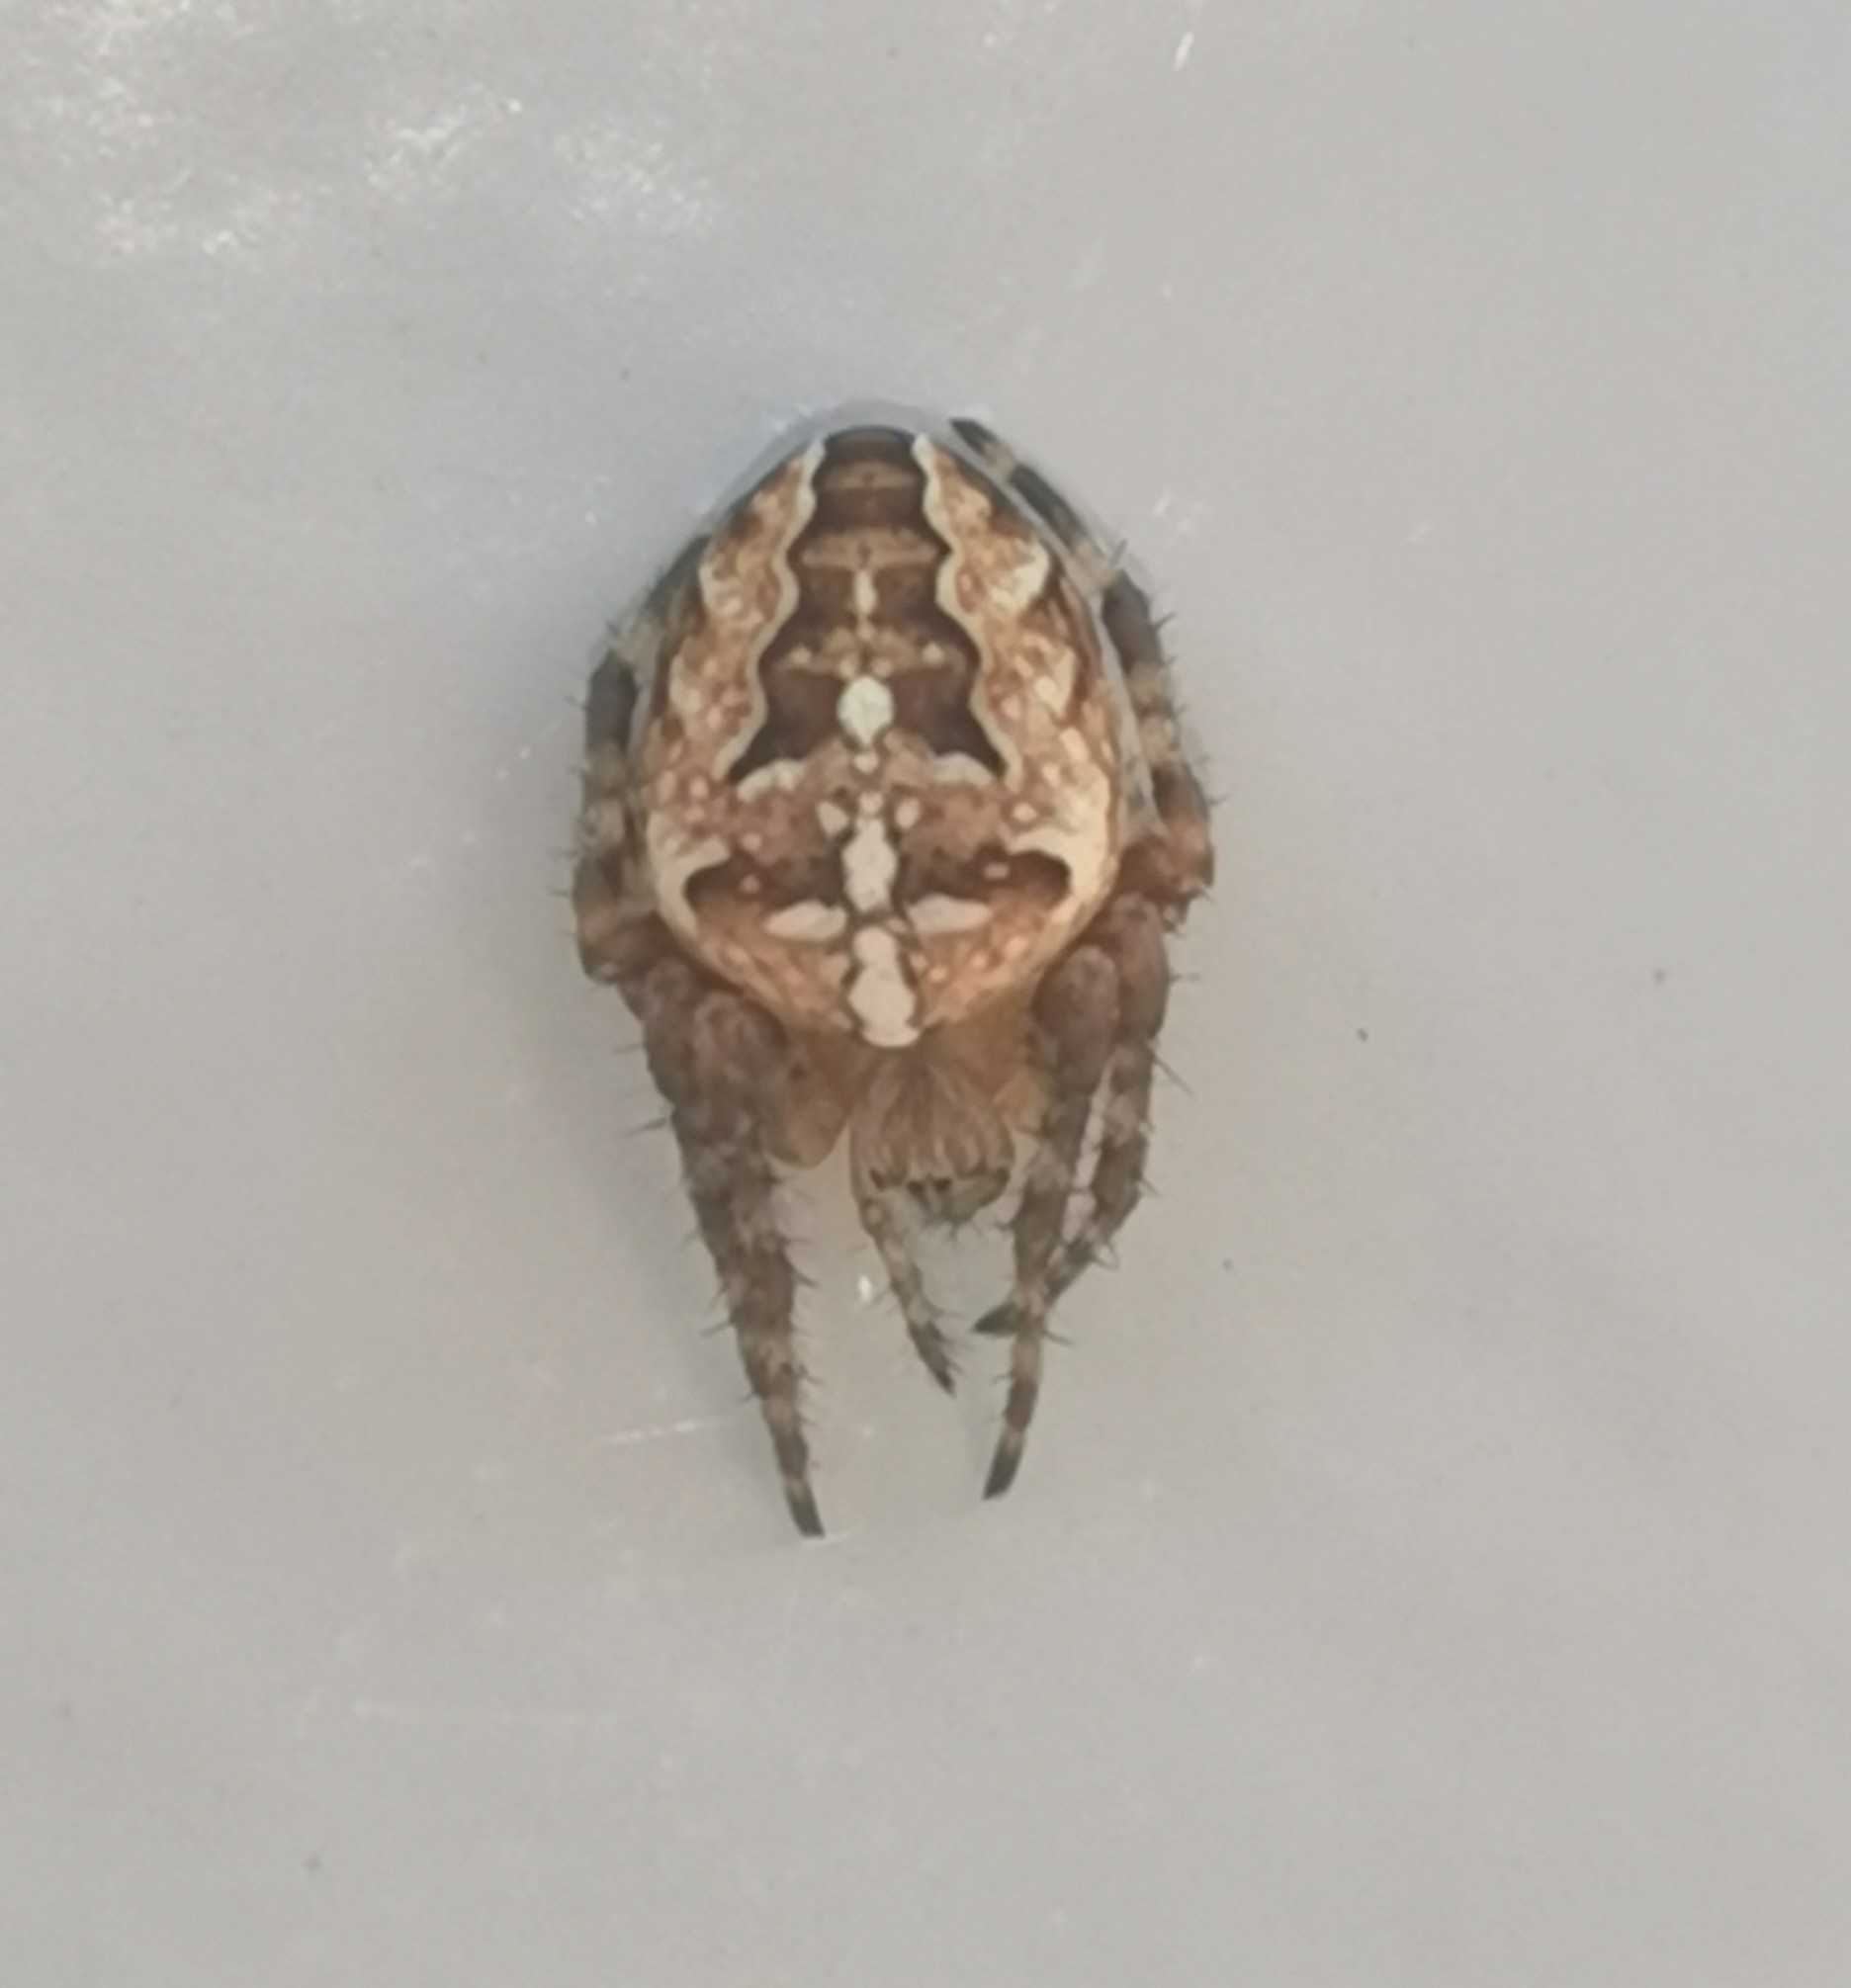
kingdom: Animalia
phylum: Arthropoda
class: Arachnida
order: Araneae
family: Araneidae
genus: Araneus
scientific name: Araneus diadematus
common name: Cross orbweaver
